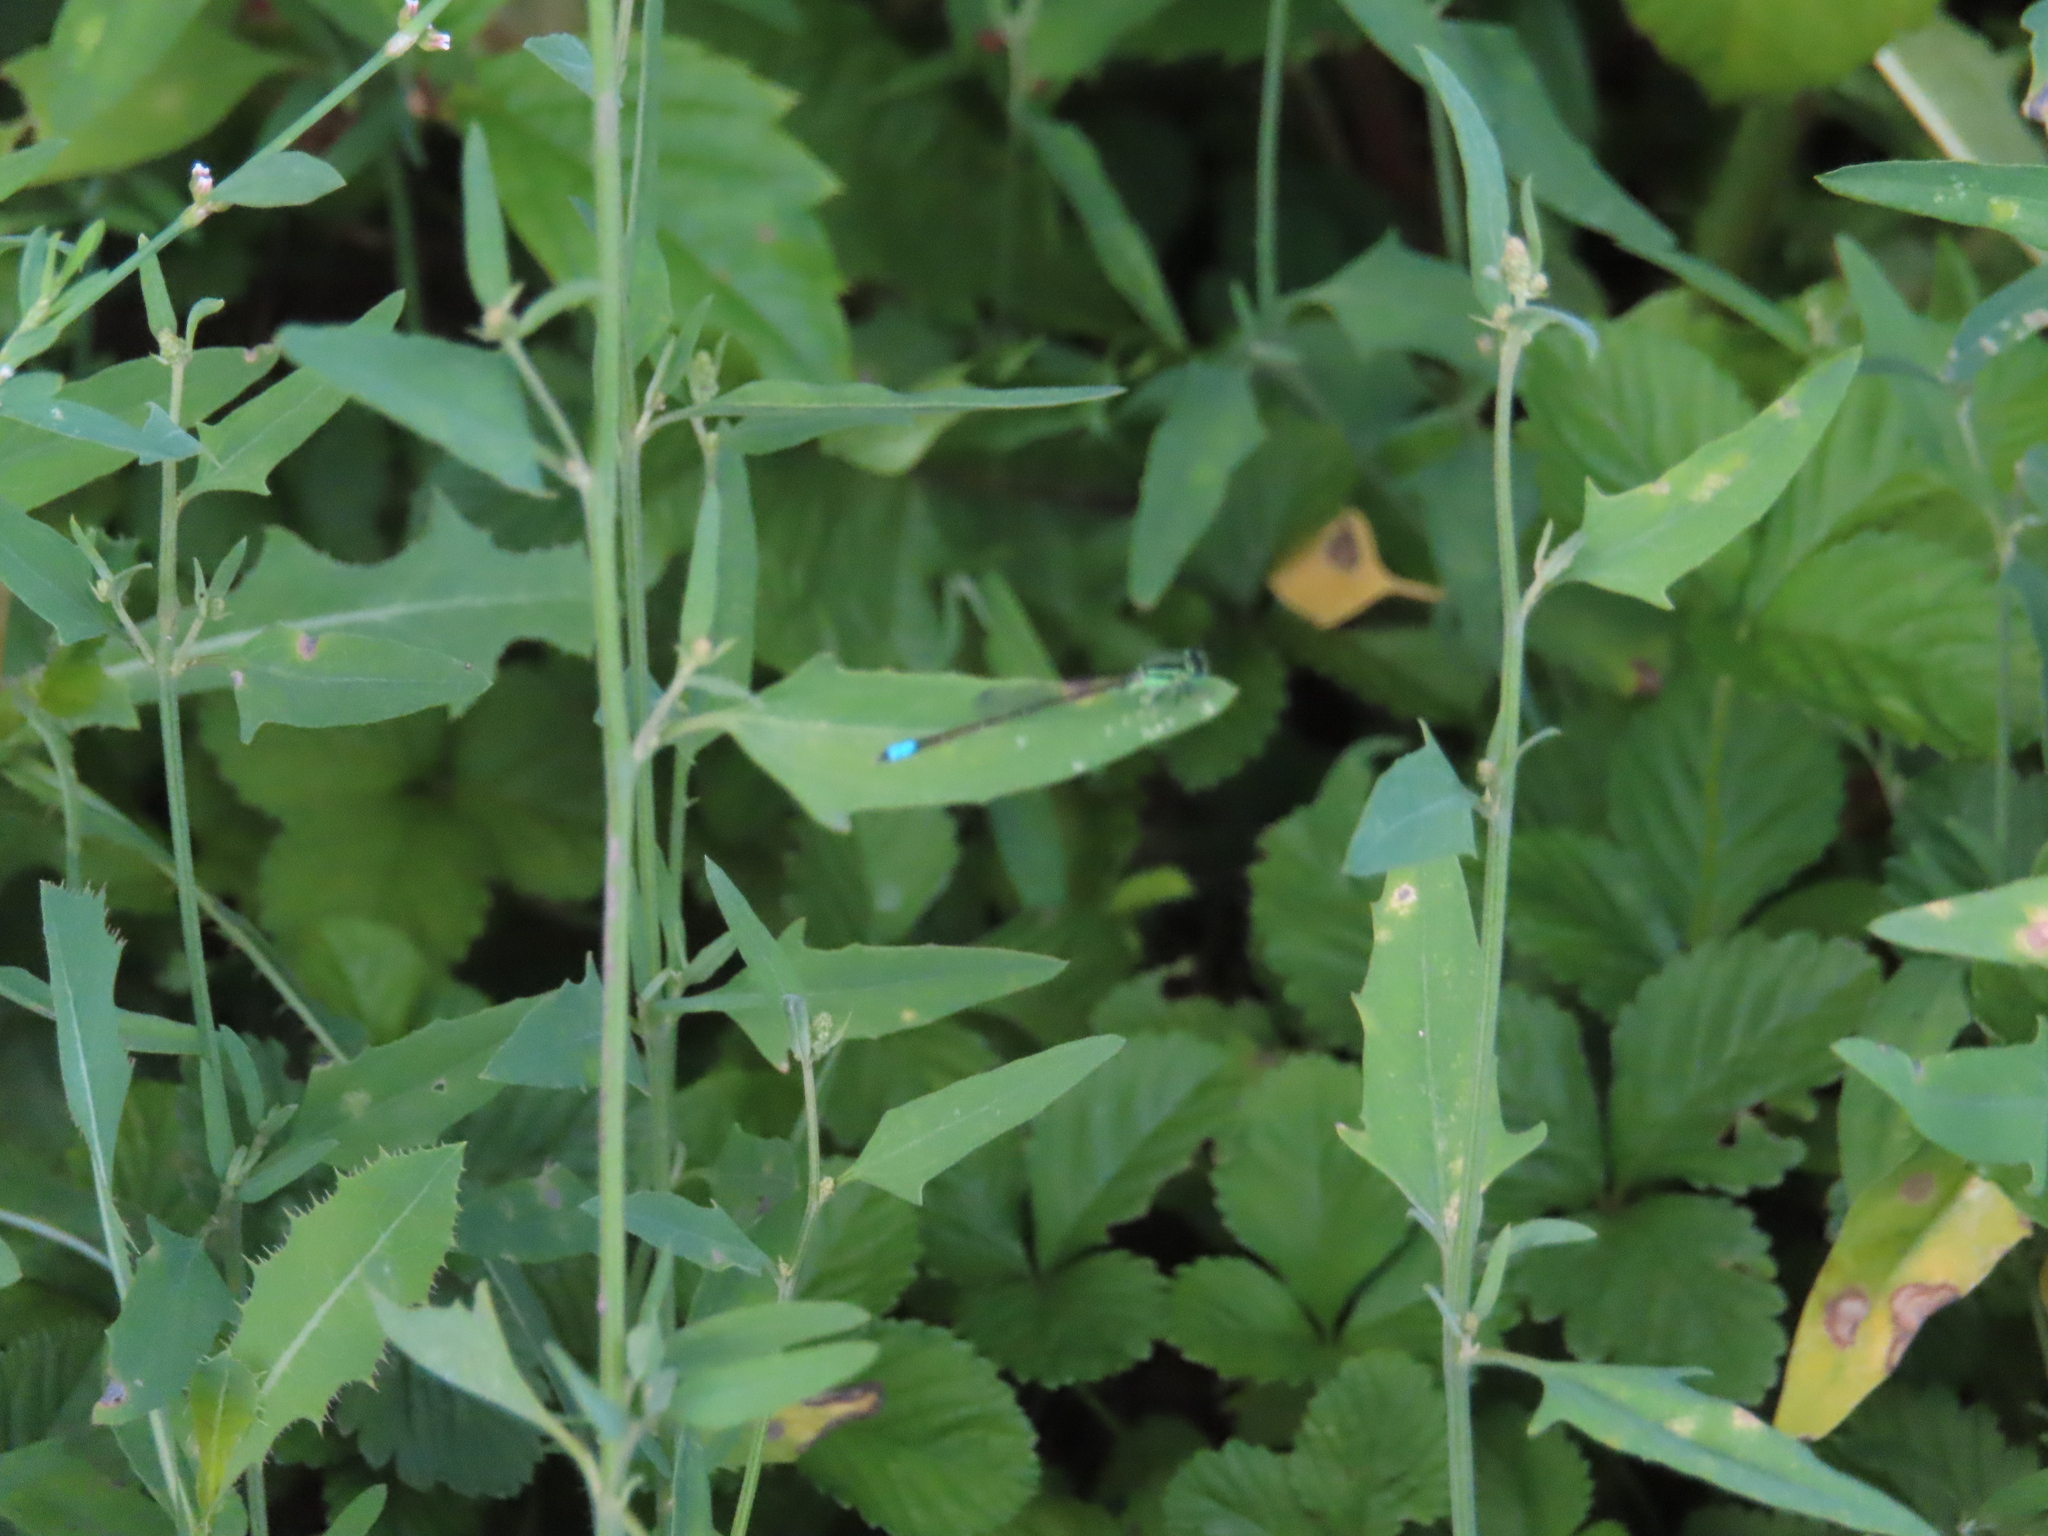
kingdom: Animalia
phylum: Arthropoda
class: Insecta
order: Odonata
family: Coenagrionidae
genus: Ischnura
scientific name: Ischnura verticalis
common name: Eastern forktail
